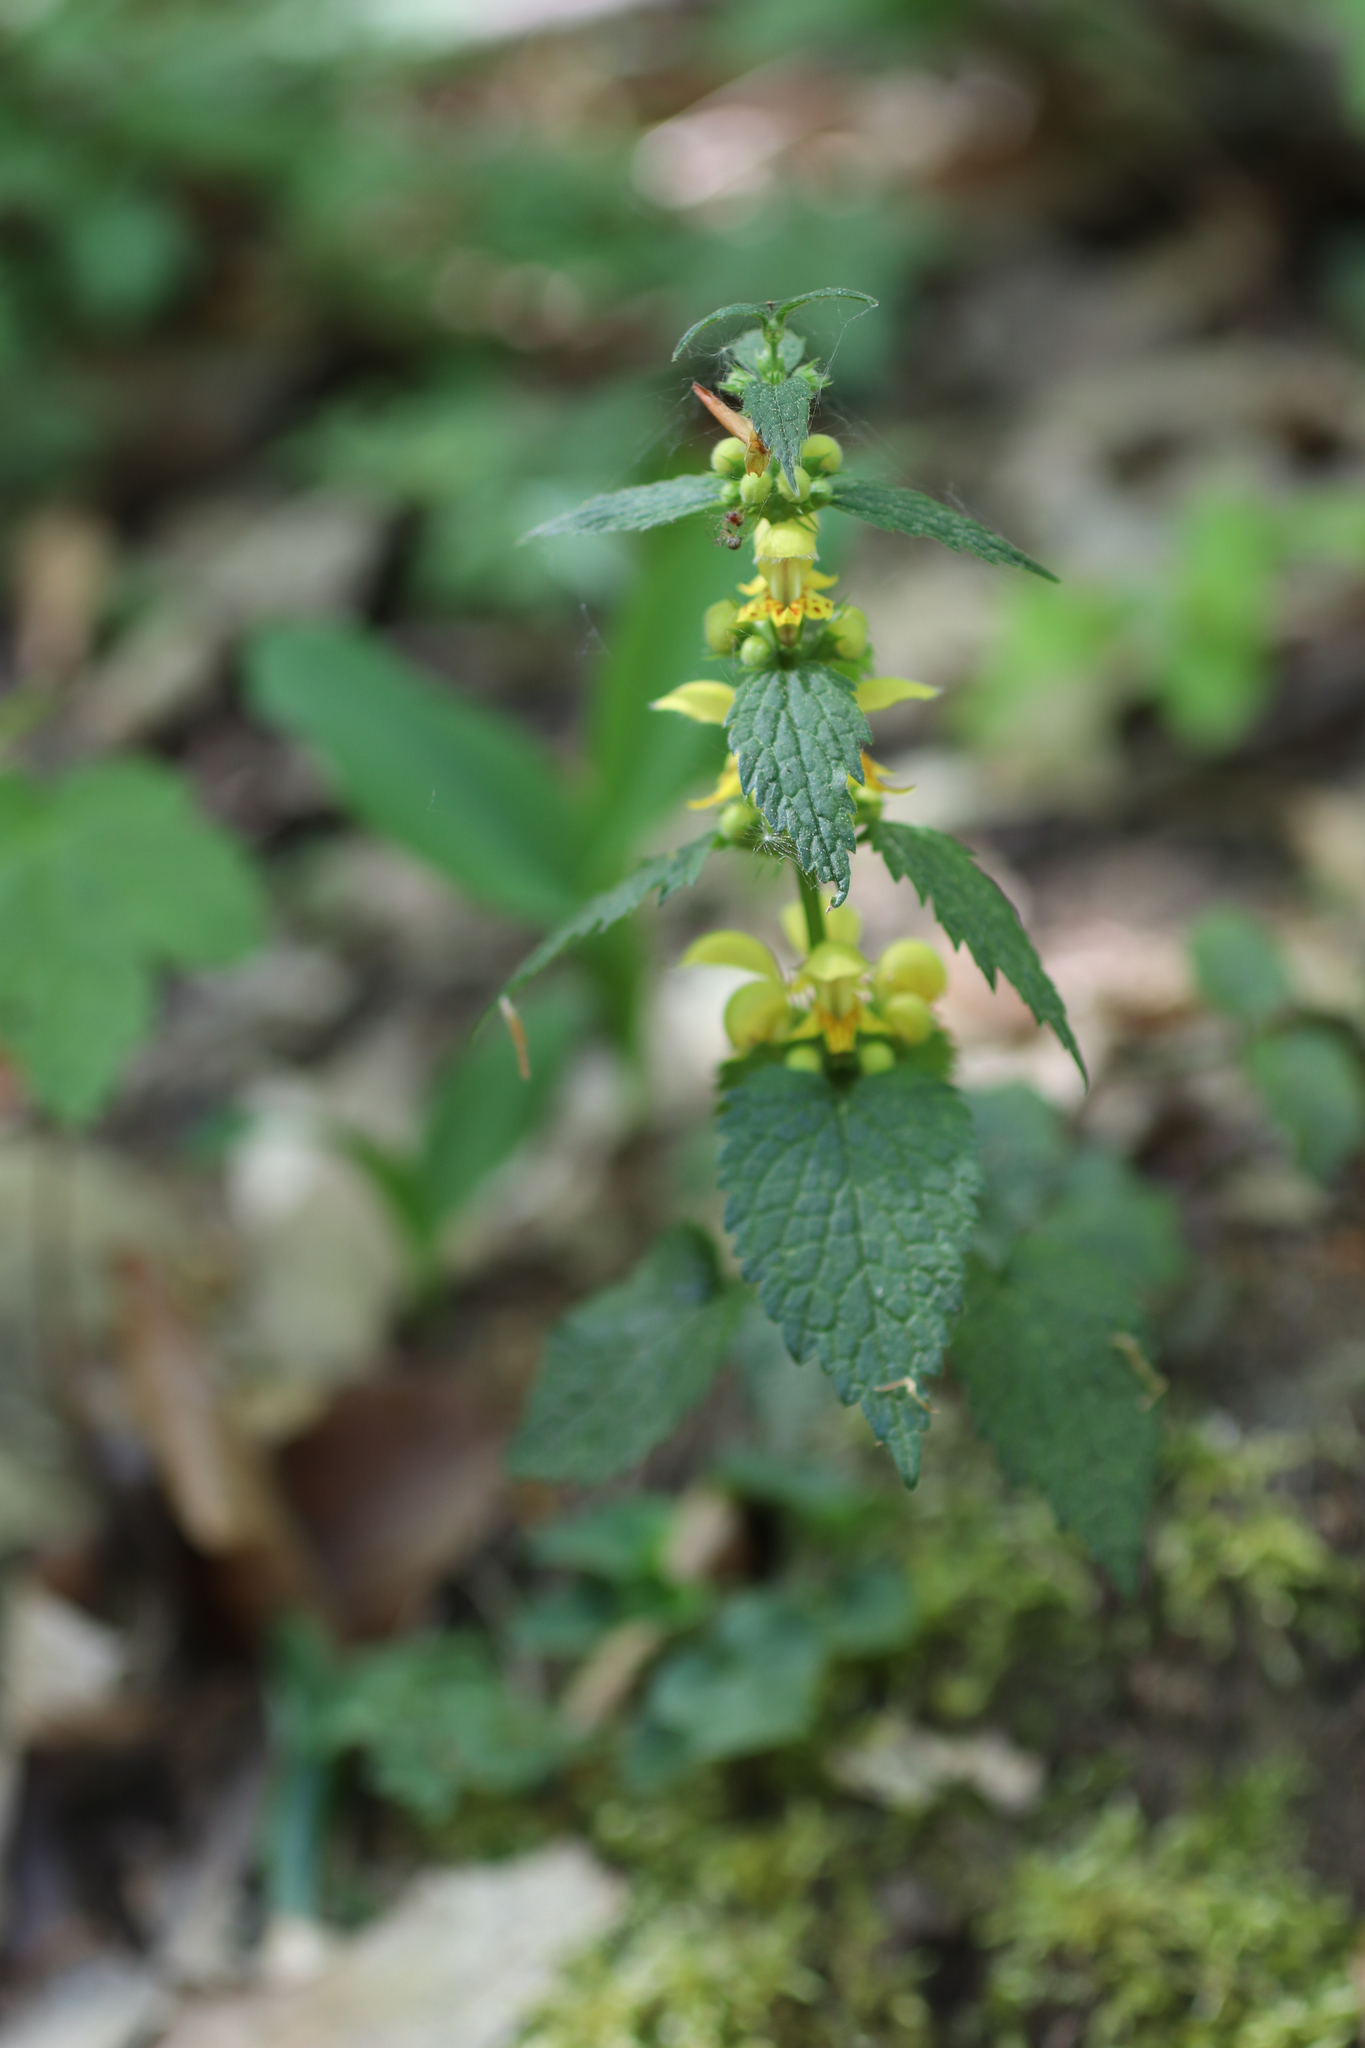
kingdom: Plantae
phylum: Tracheophyta
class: Magnoliopsida
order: Lamiales
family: Lamiaceae
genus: Lamium
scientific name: Lamium galeobdolon
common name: Yellow archangel
